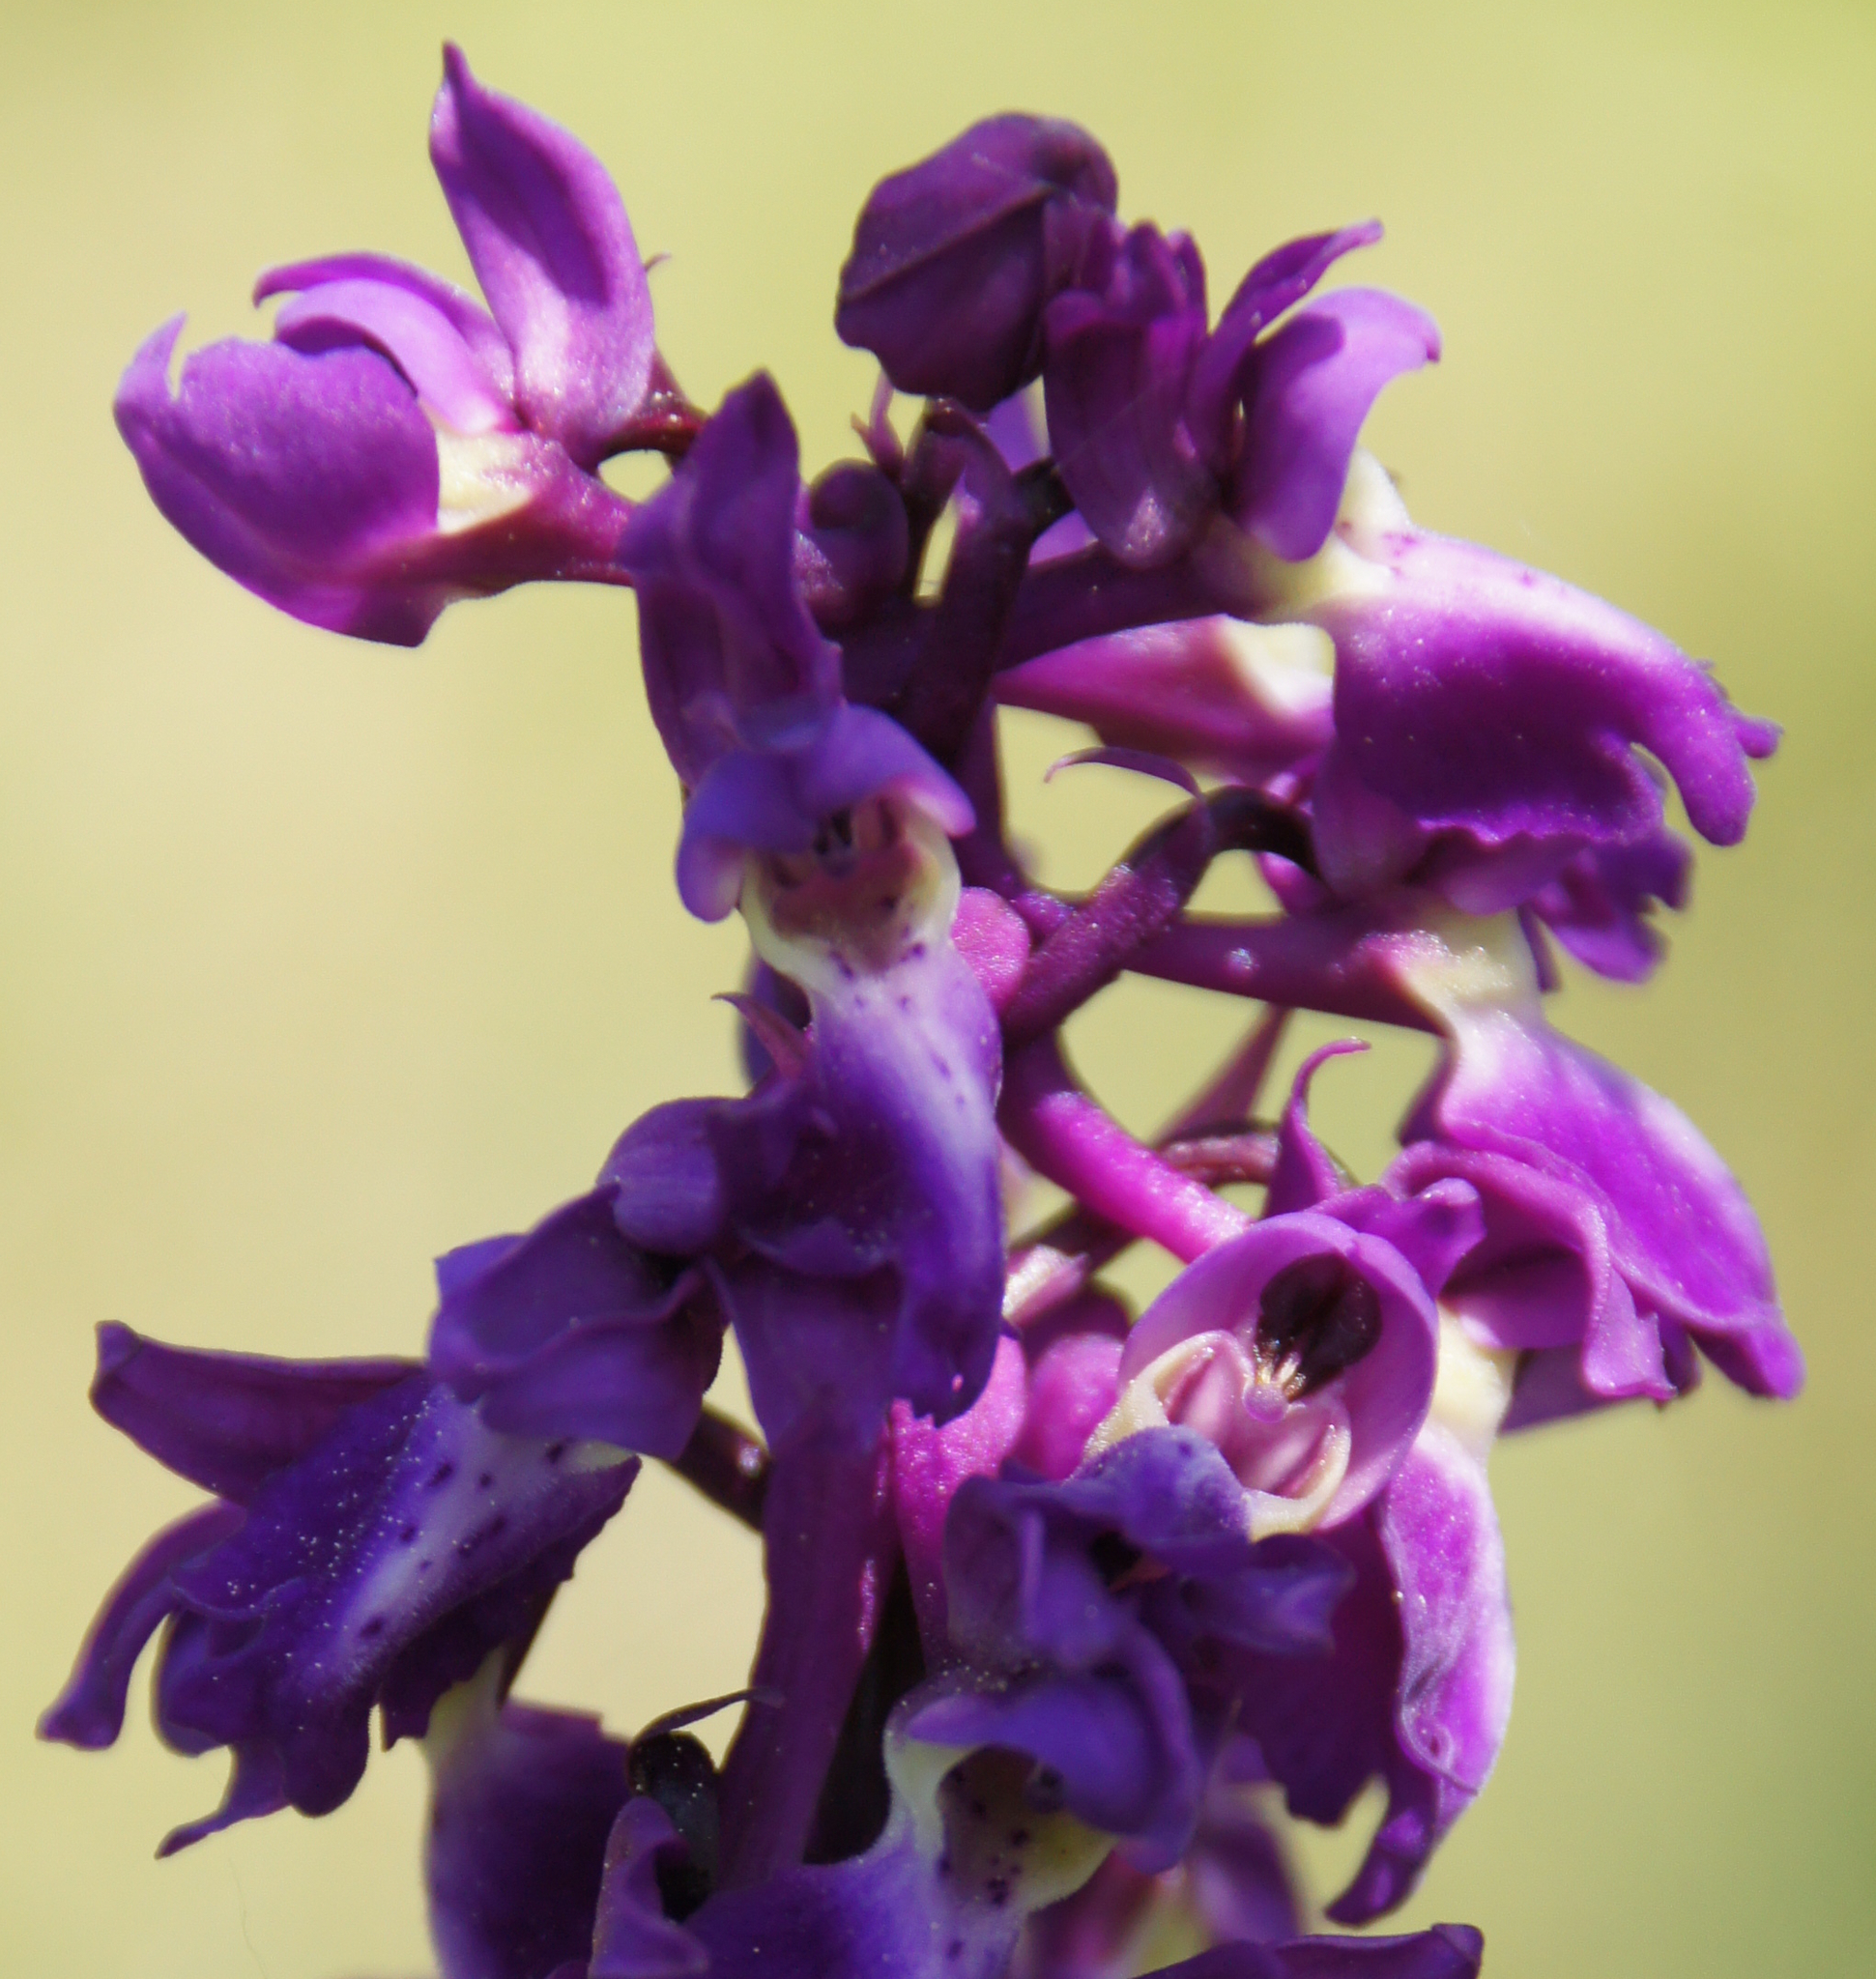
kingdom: Plantae
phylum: Tracheophyta
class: Liliopsida
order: Asparagales
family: Orchidaceae
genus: Orchis
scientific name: Orchis mascula
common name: Early-purple orchid
